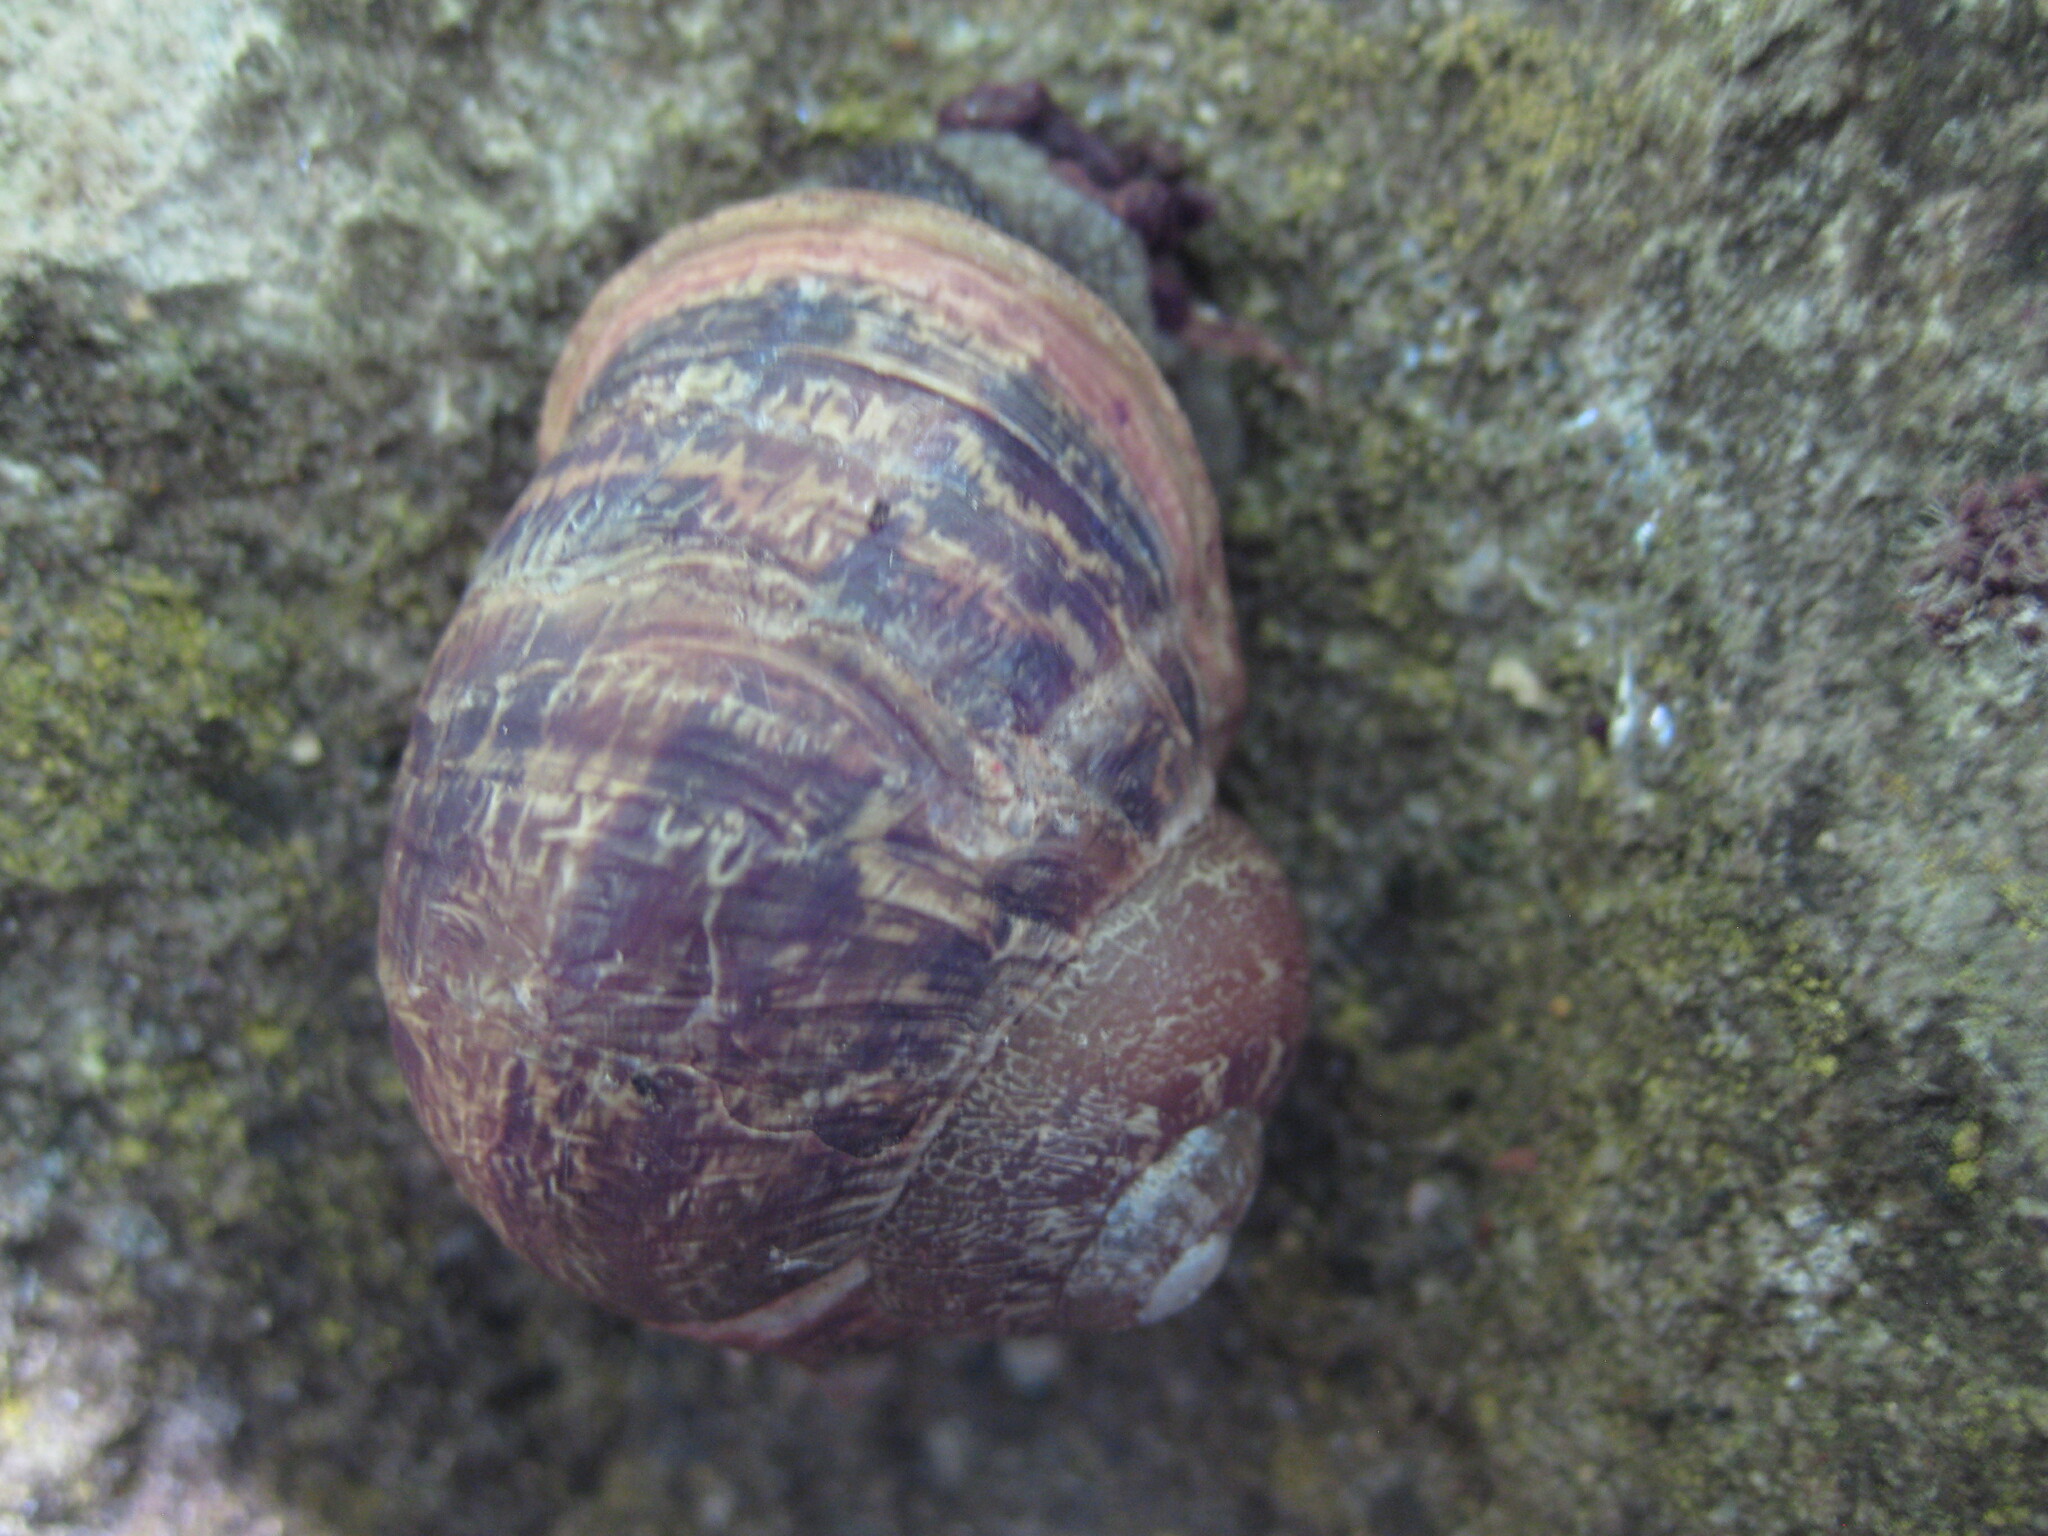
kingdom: Animalia
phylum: Mollusca
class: Gastropoda
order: Stylommatophora
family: Helicidae
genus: Cornu
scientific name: Cornu aspersum
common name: Brown garden snail
